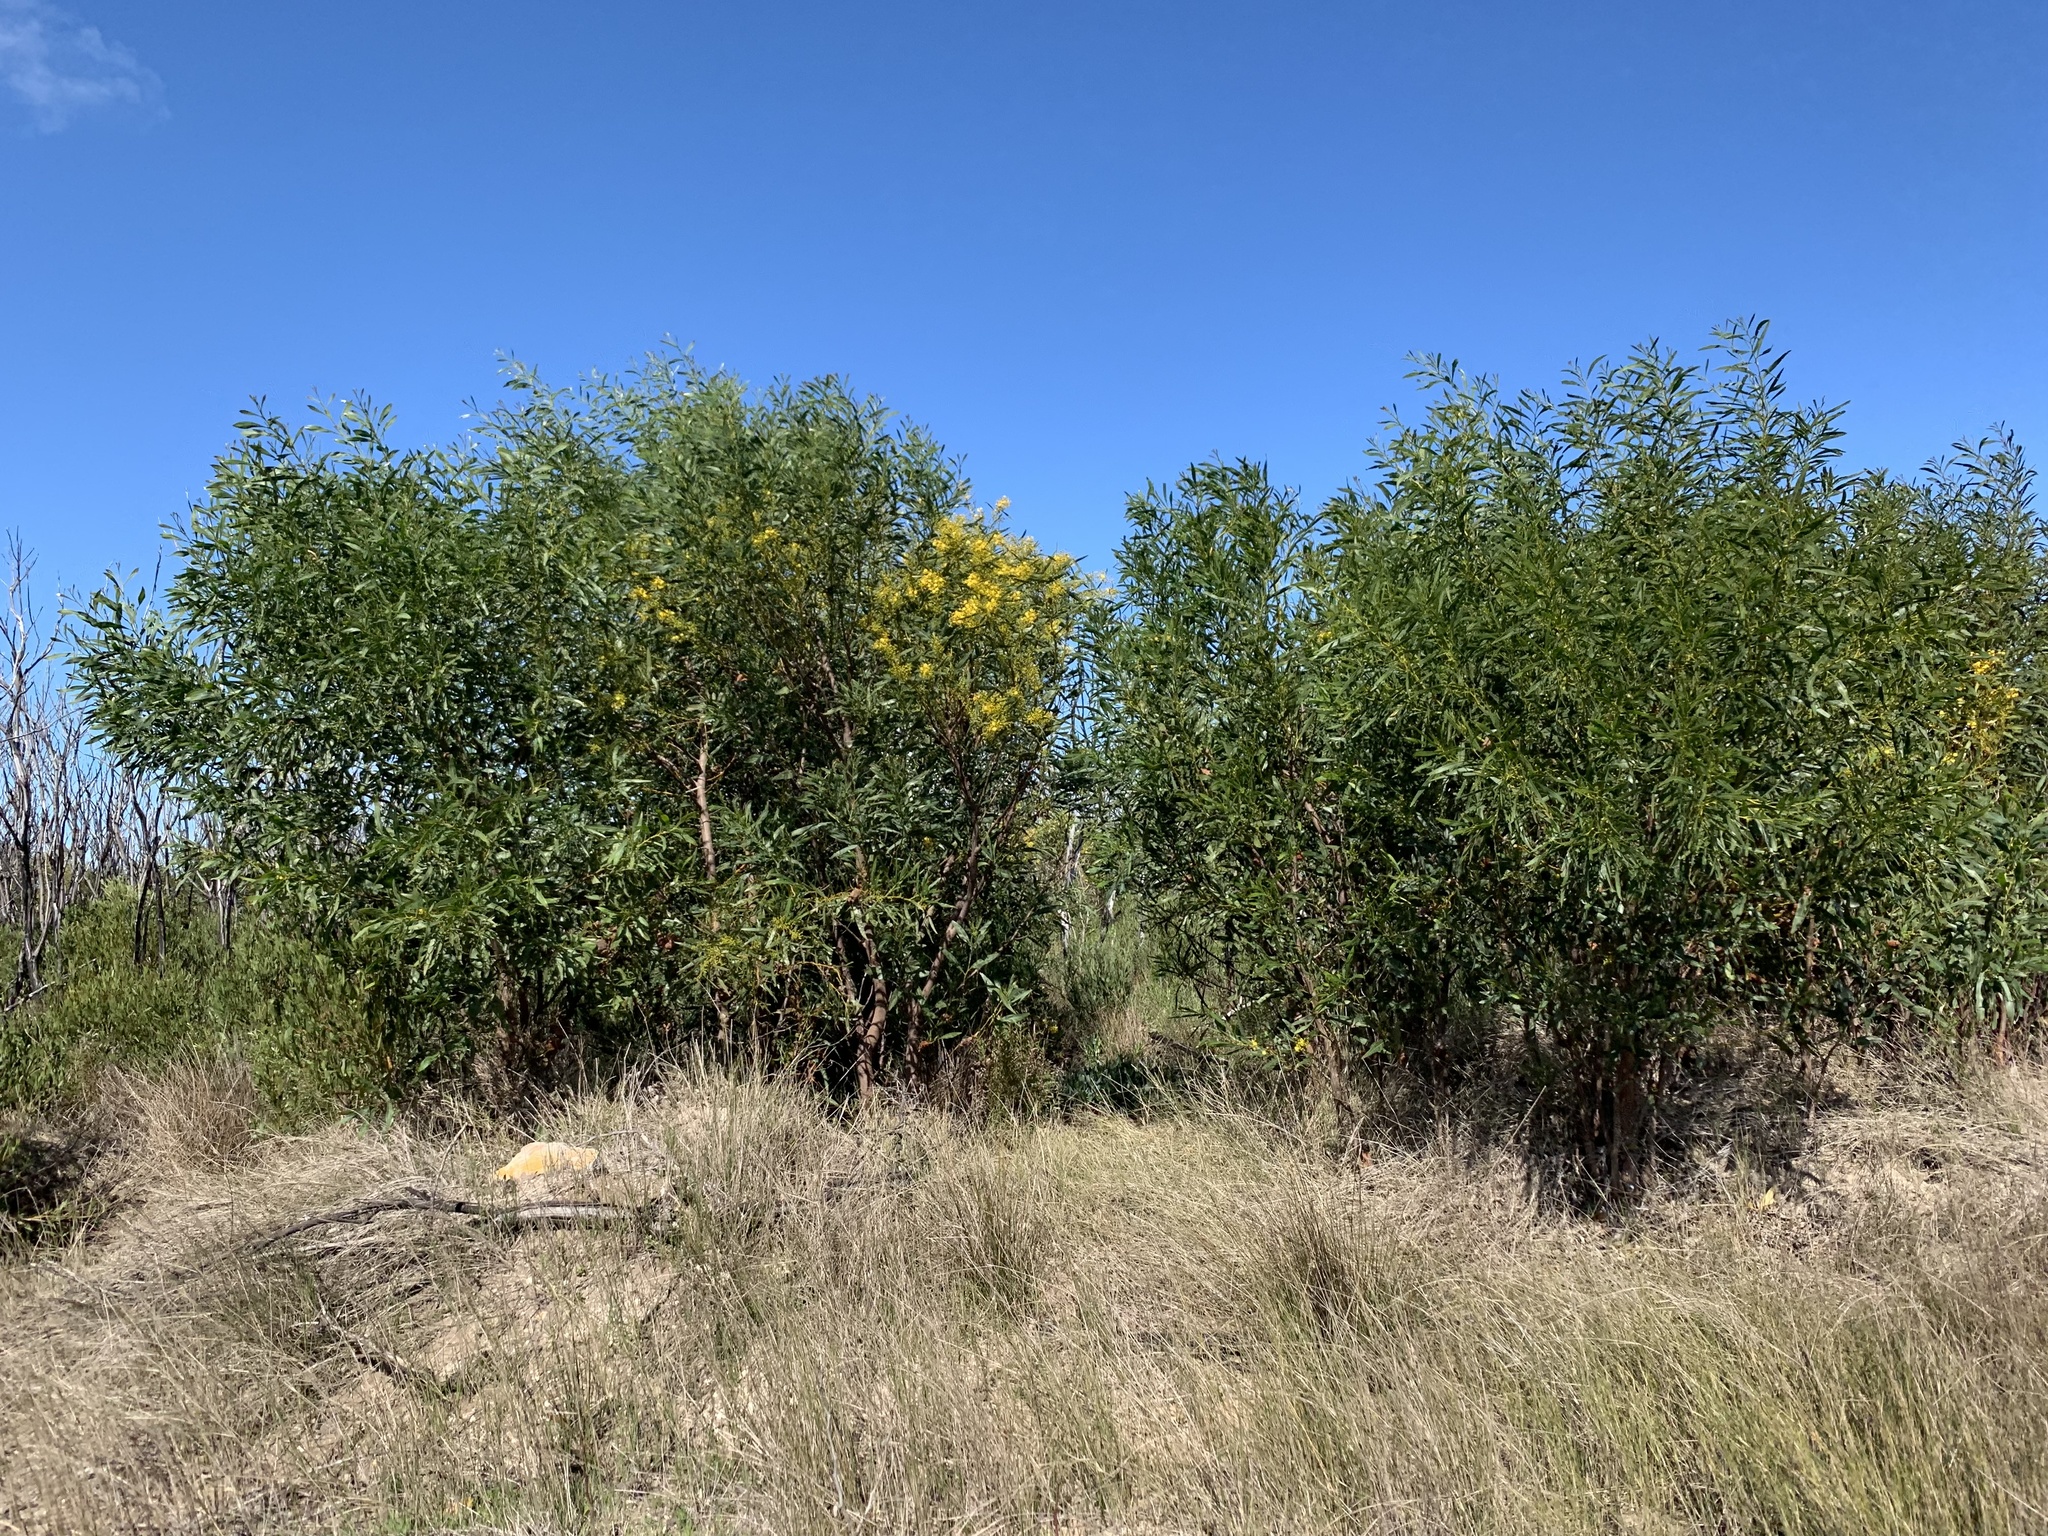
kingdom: Plantae
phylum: Tracheophyta
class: Magnoliopsida
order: Fabales
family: Fabaceae
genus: Acacia
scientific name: Acacia saligna
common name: Orange wattle
